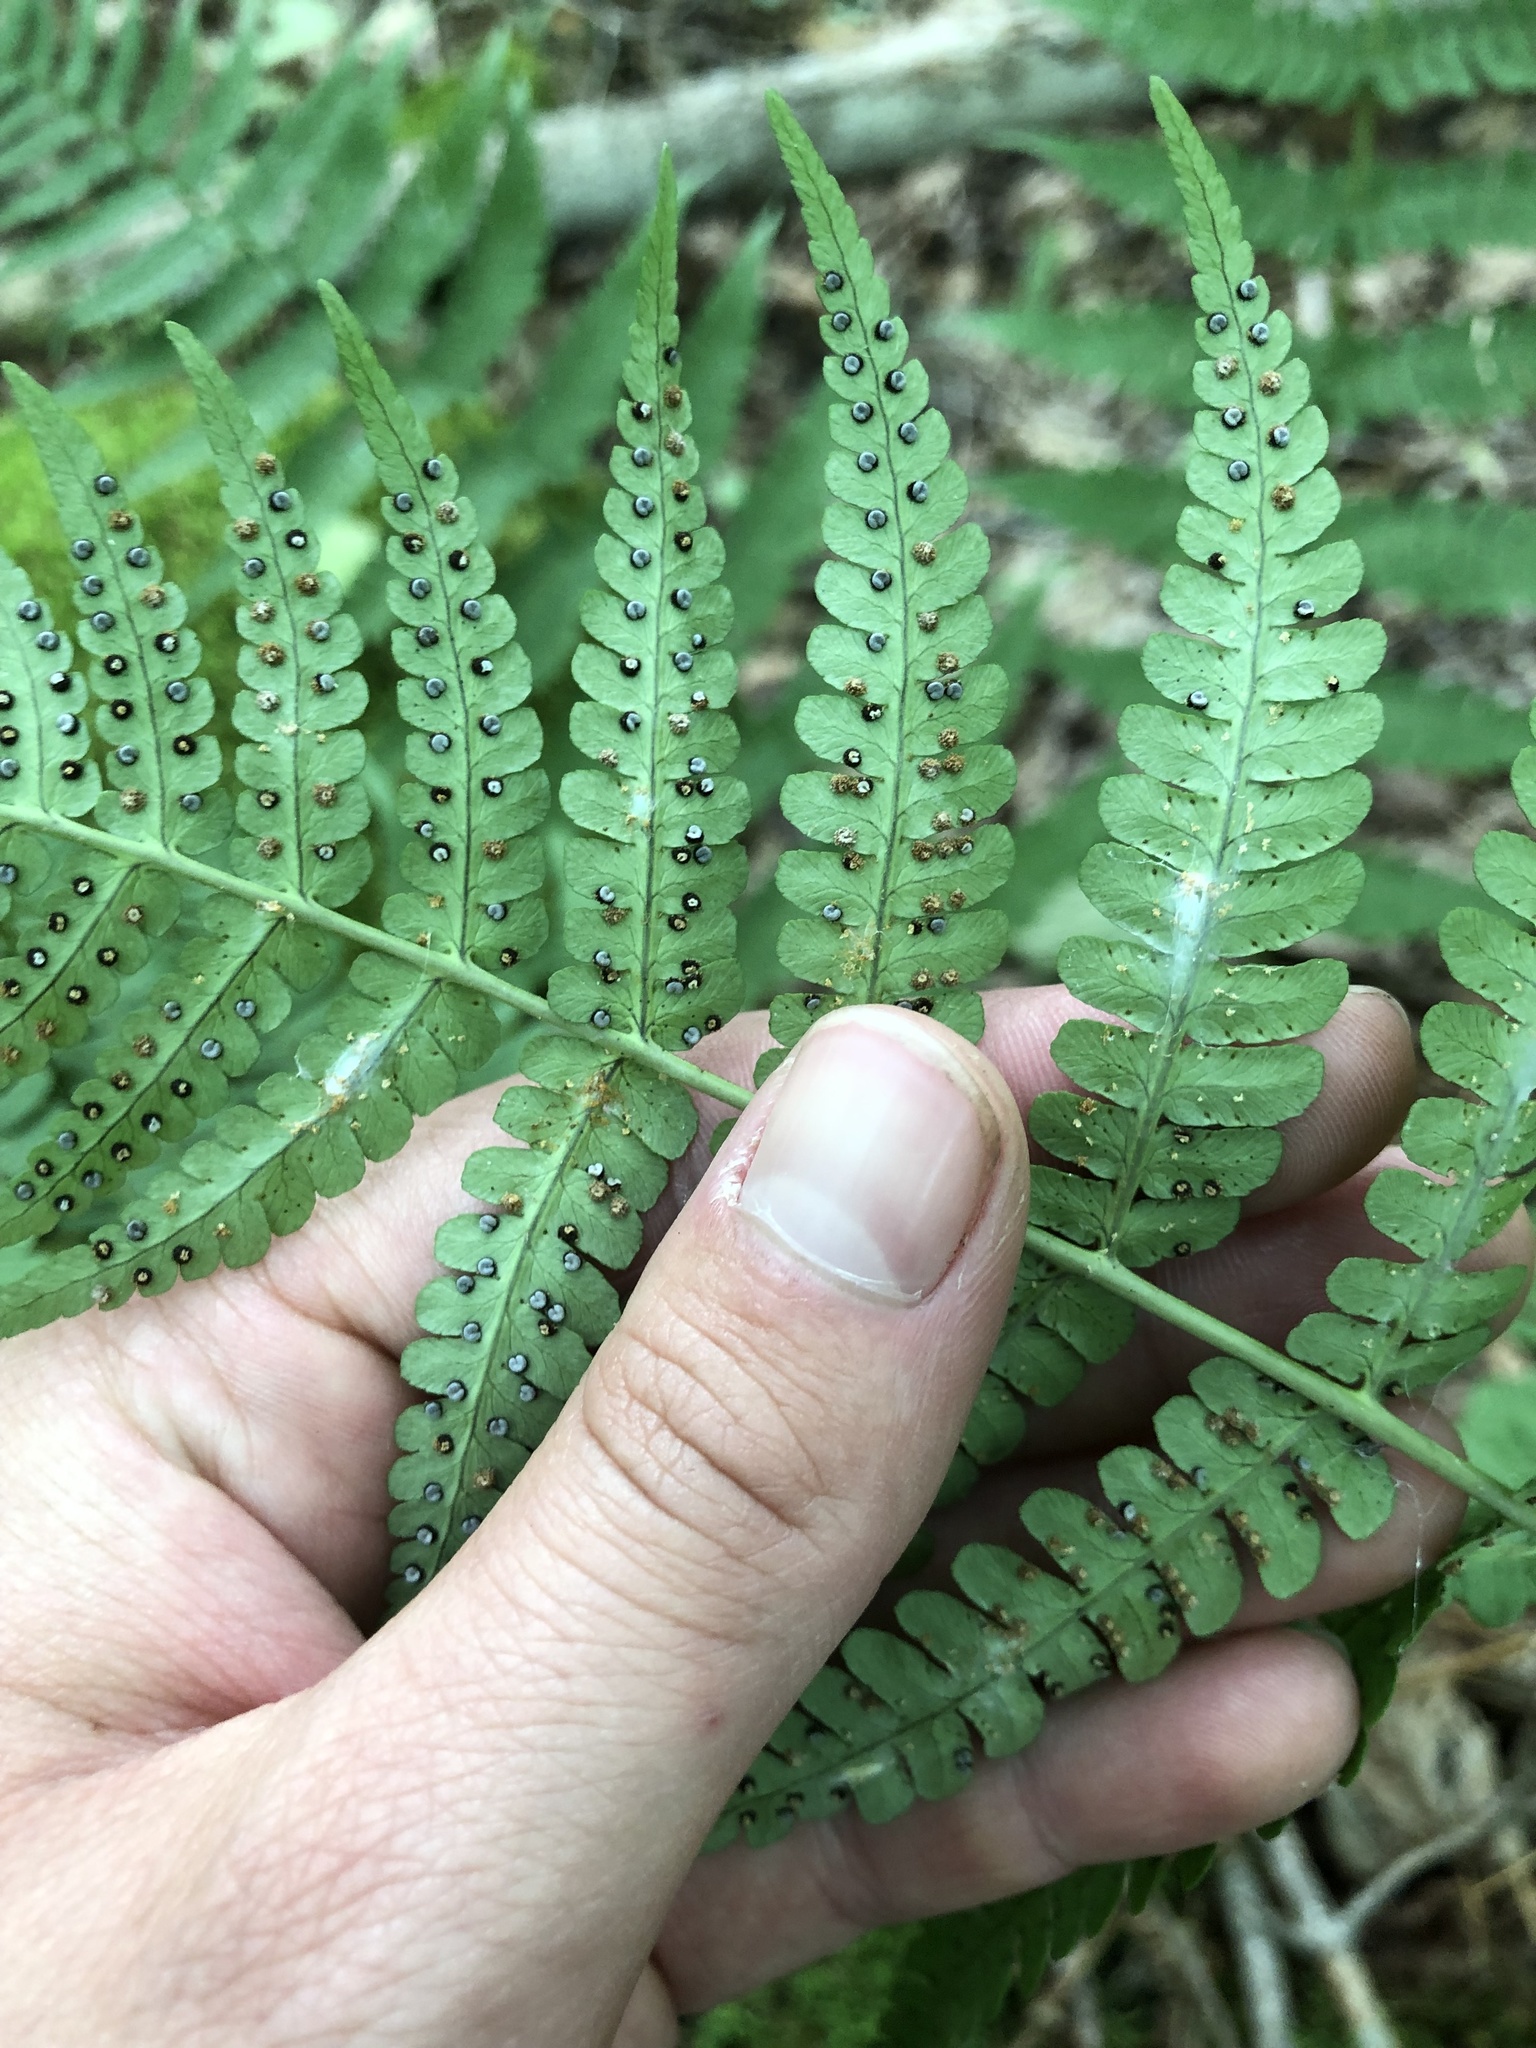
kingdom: Plantae
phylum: Tracheophyta
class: Polypodiopsida
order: Polypodiales
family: Dryopteridaceae
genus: Dryopteris
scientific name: Dryopteris marginalis
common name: Marginal wood fern
